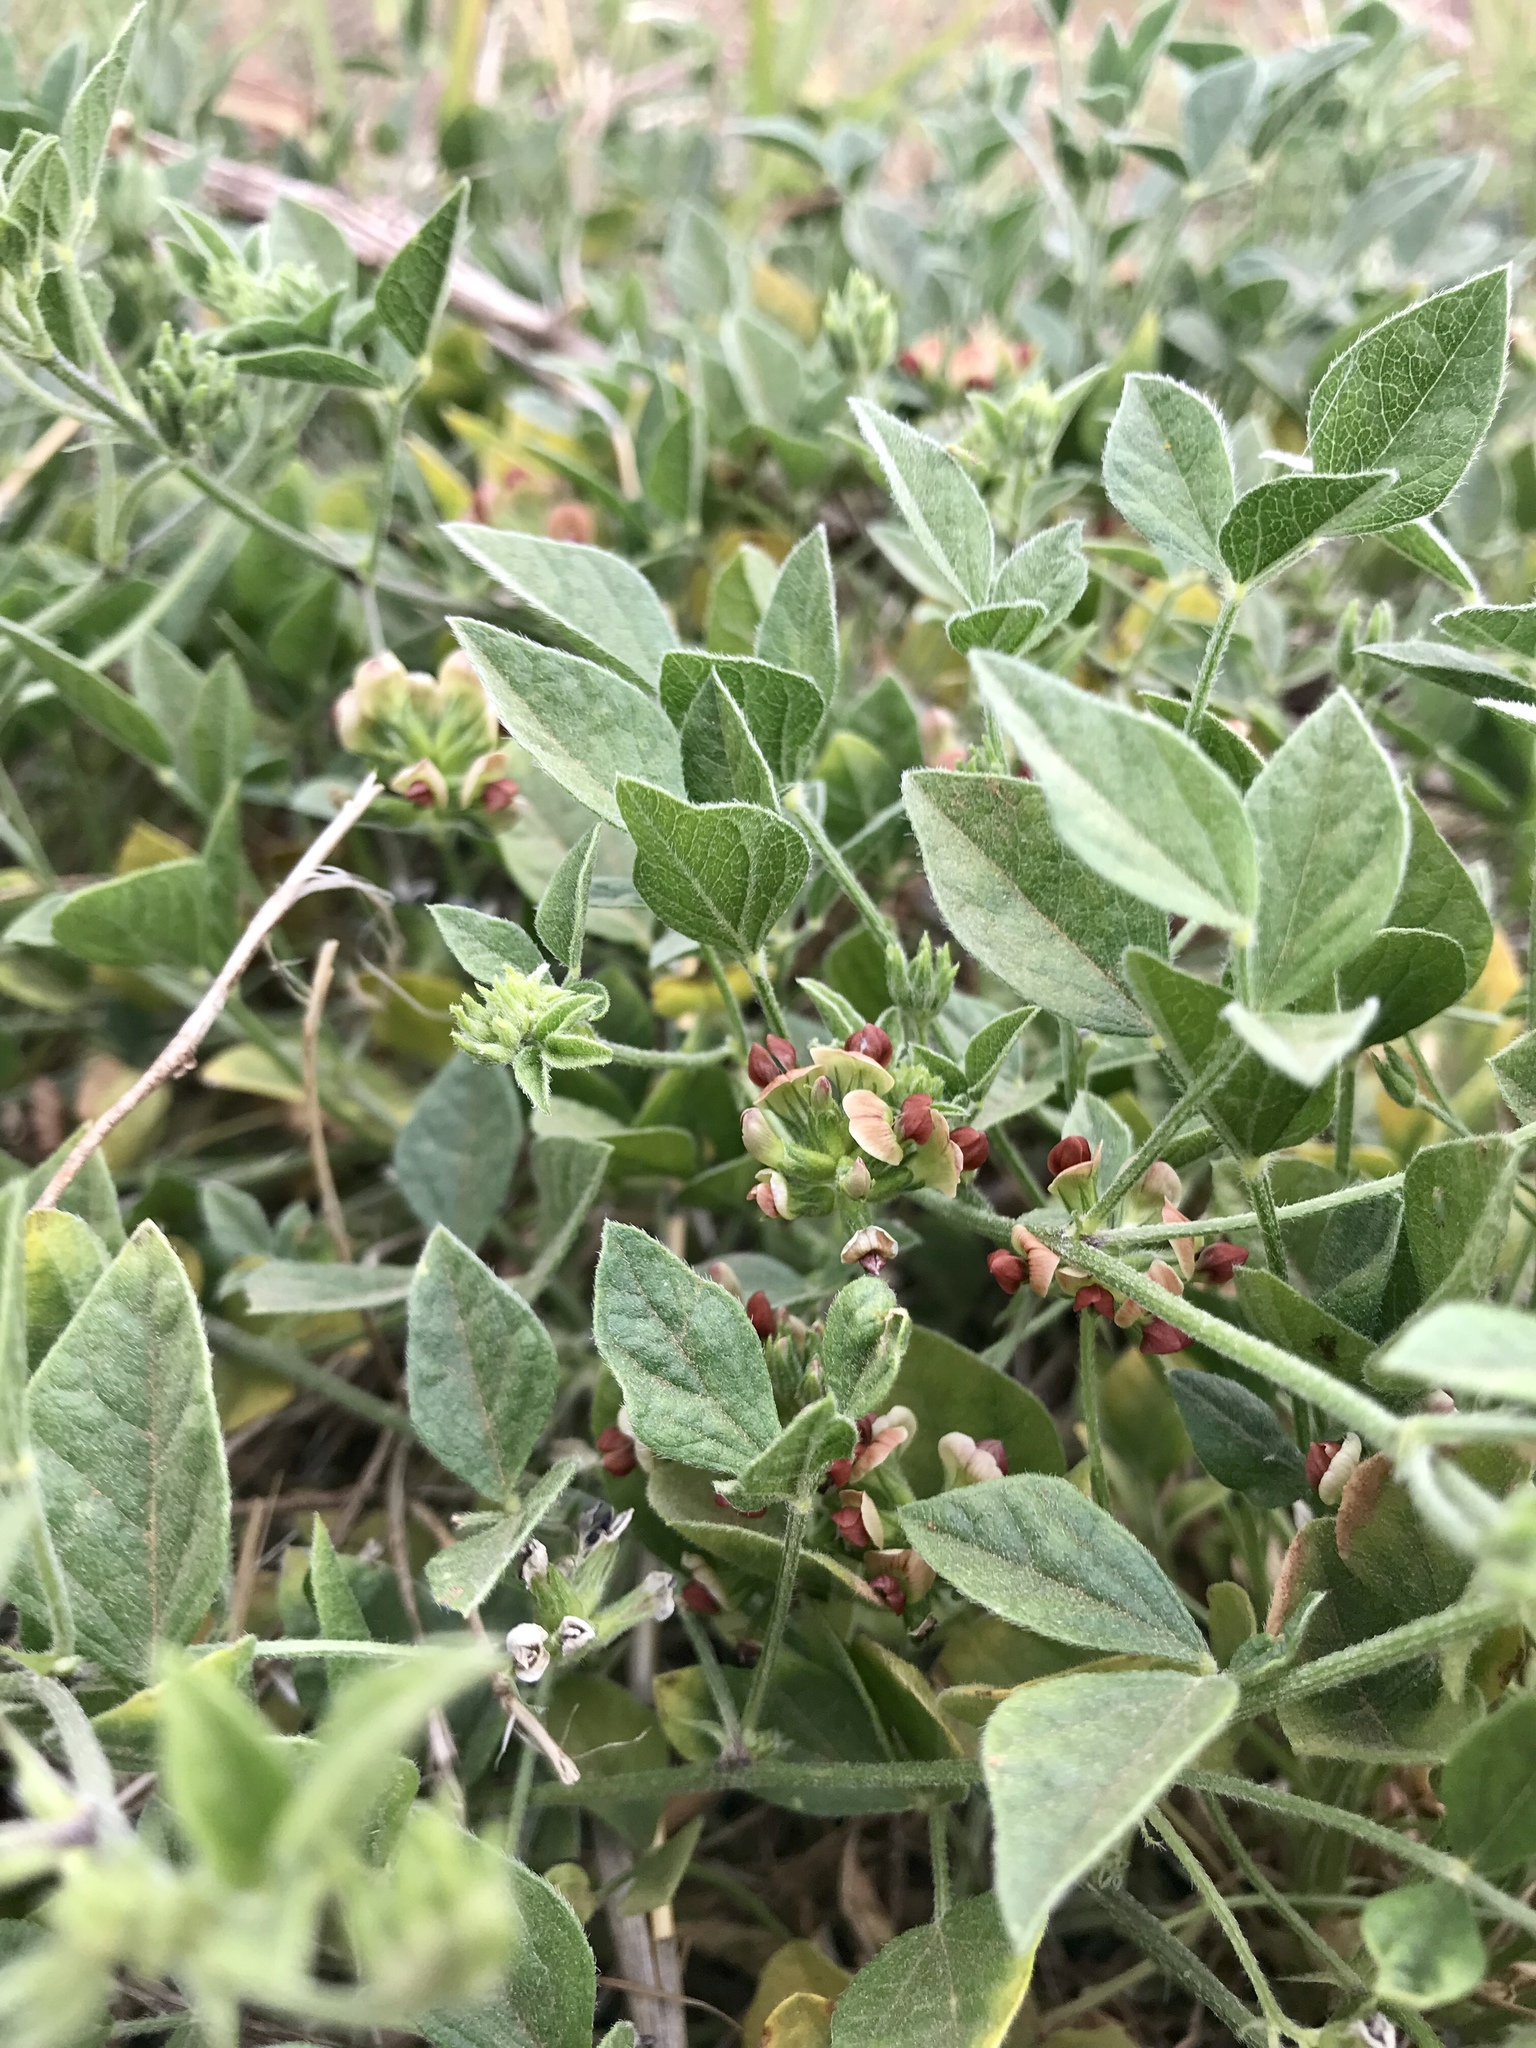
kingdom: Plantae
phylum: Tracheophyta
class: Magnoliopsida
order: Fabales
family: Fabaceae
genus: Pediomelum
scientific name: Pediomelum rhombifolium
